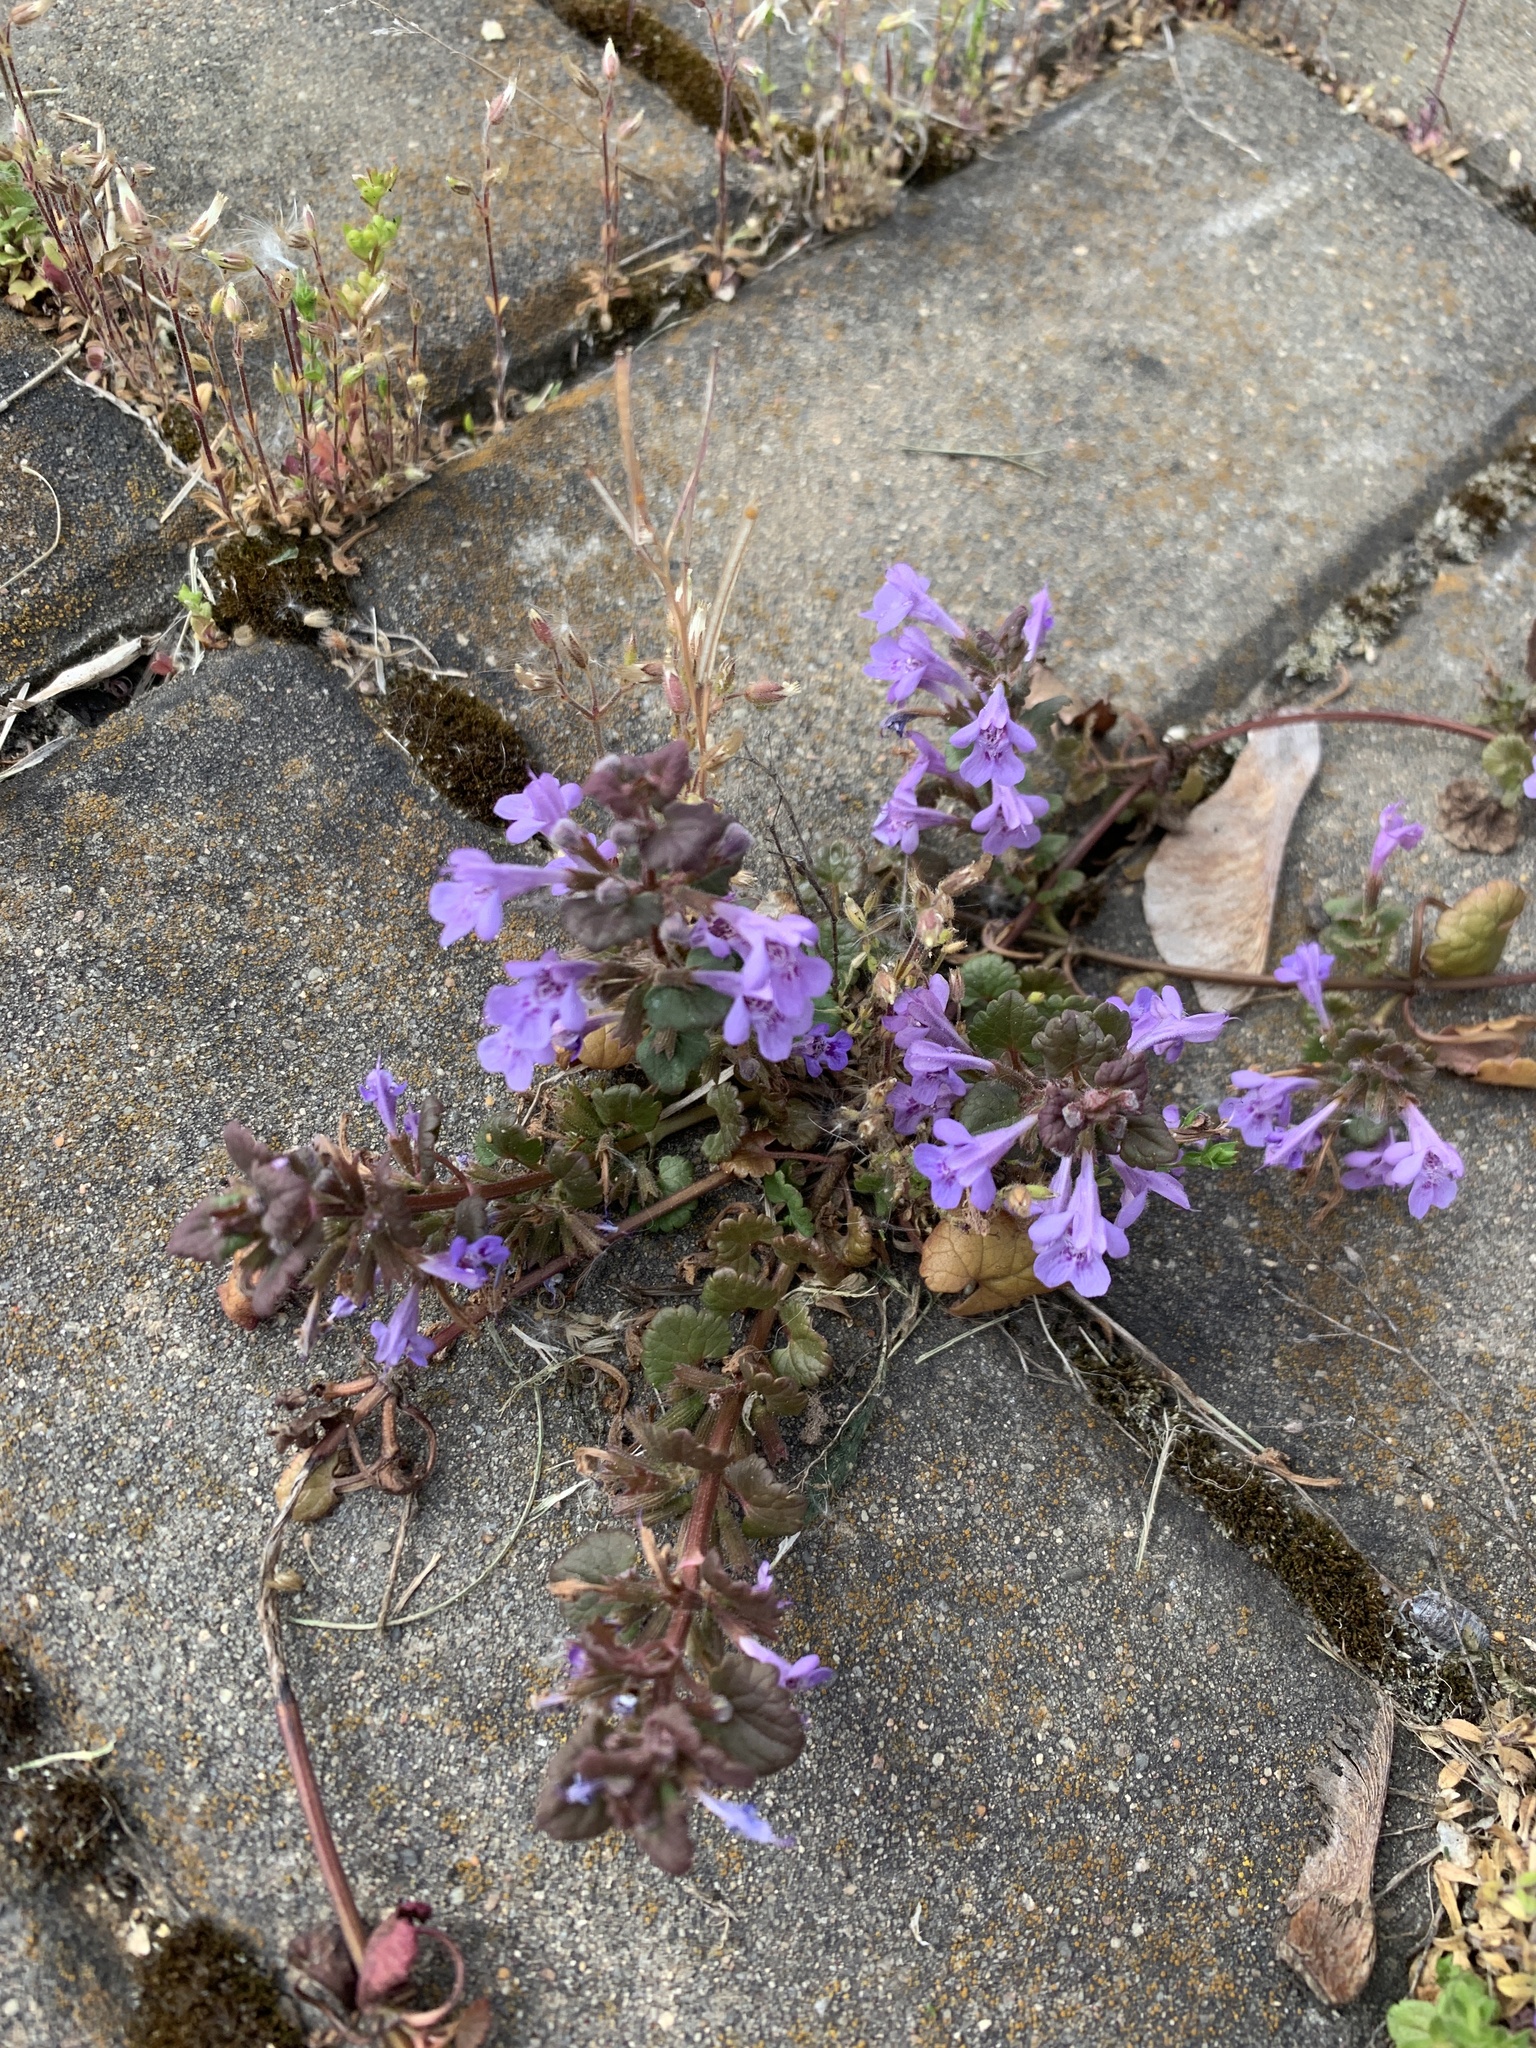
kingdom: Plantae
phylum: Tracheophyta
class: Magnoliopsida
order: Lamiales
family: Lamiaceae
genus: Glechoma
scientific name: Glechoma hederacea
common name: Ground ivy
